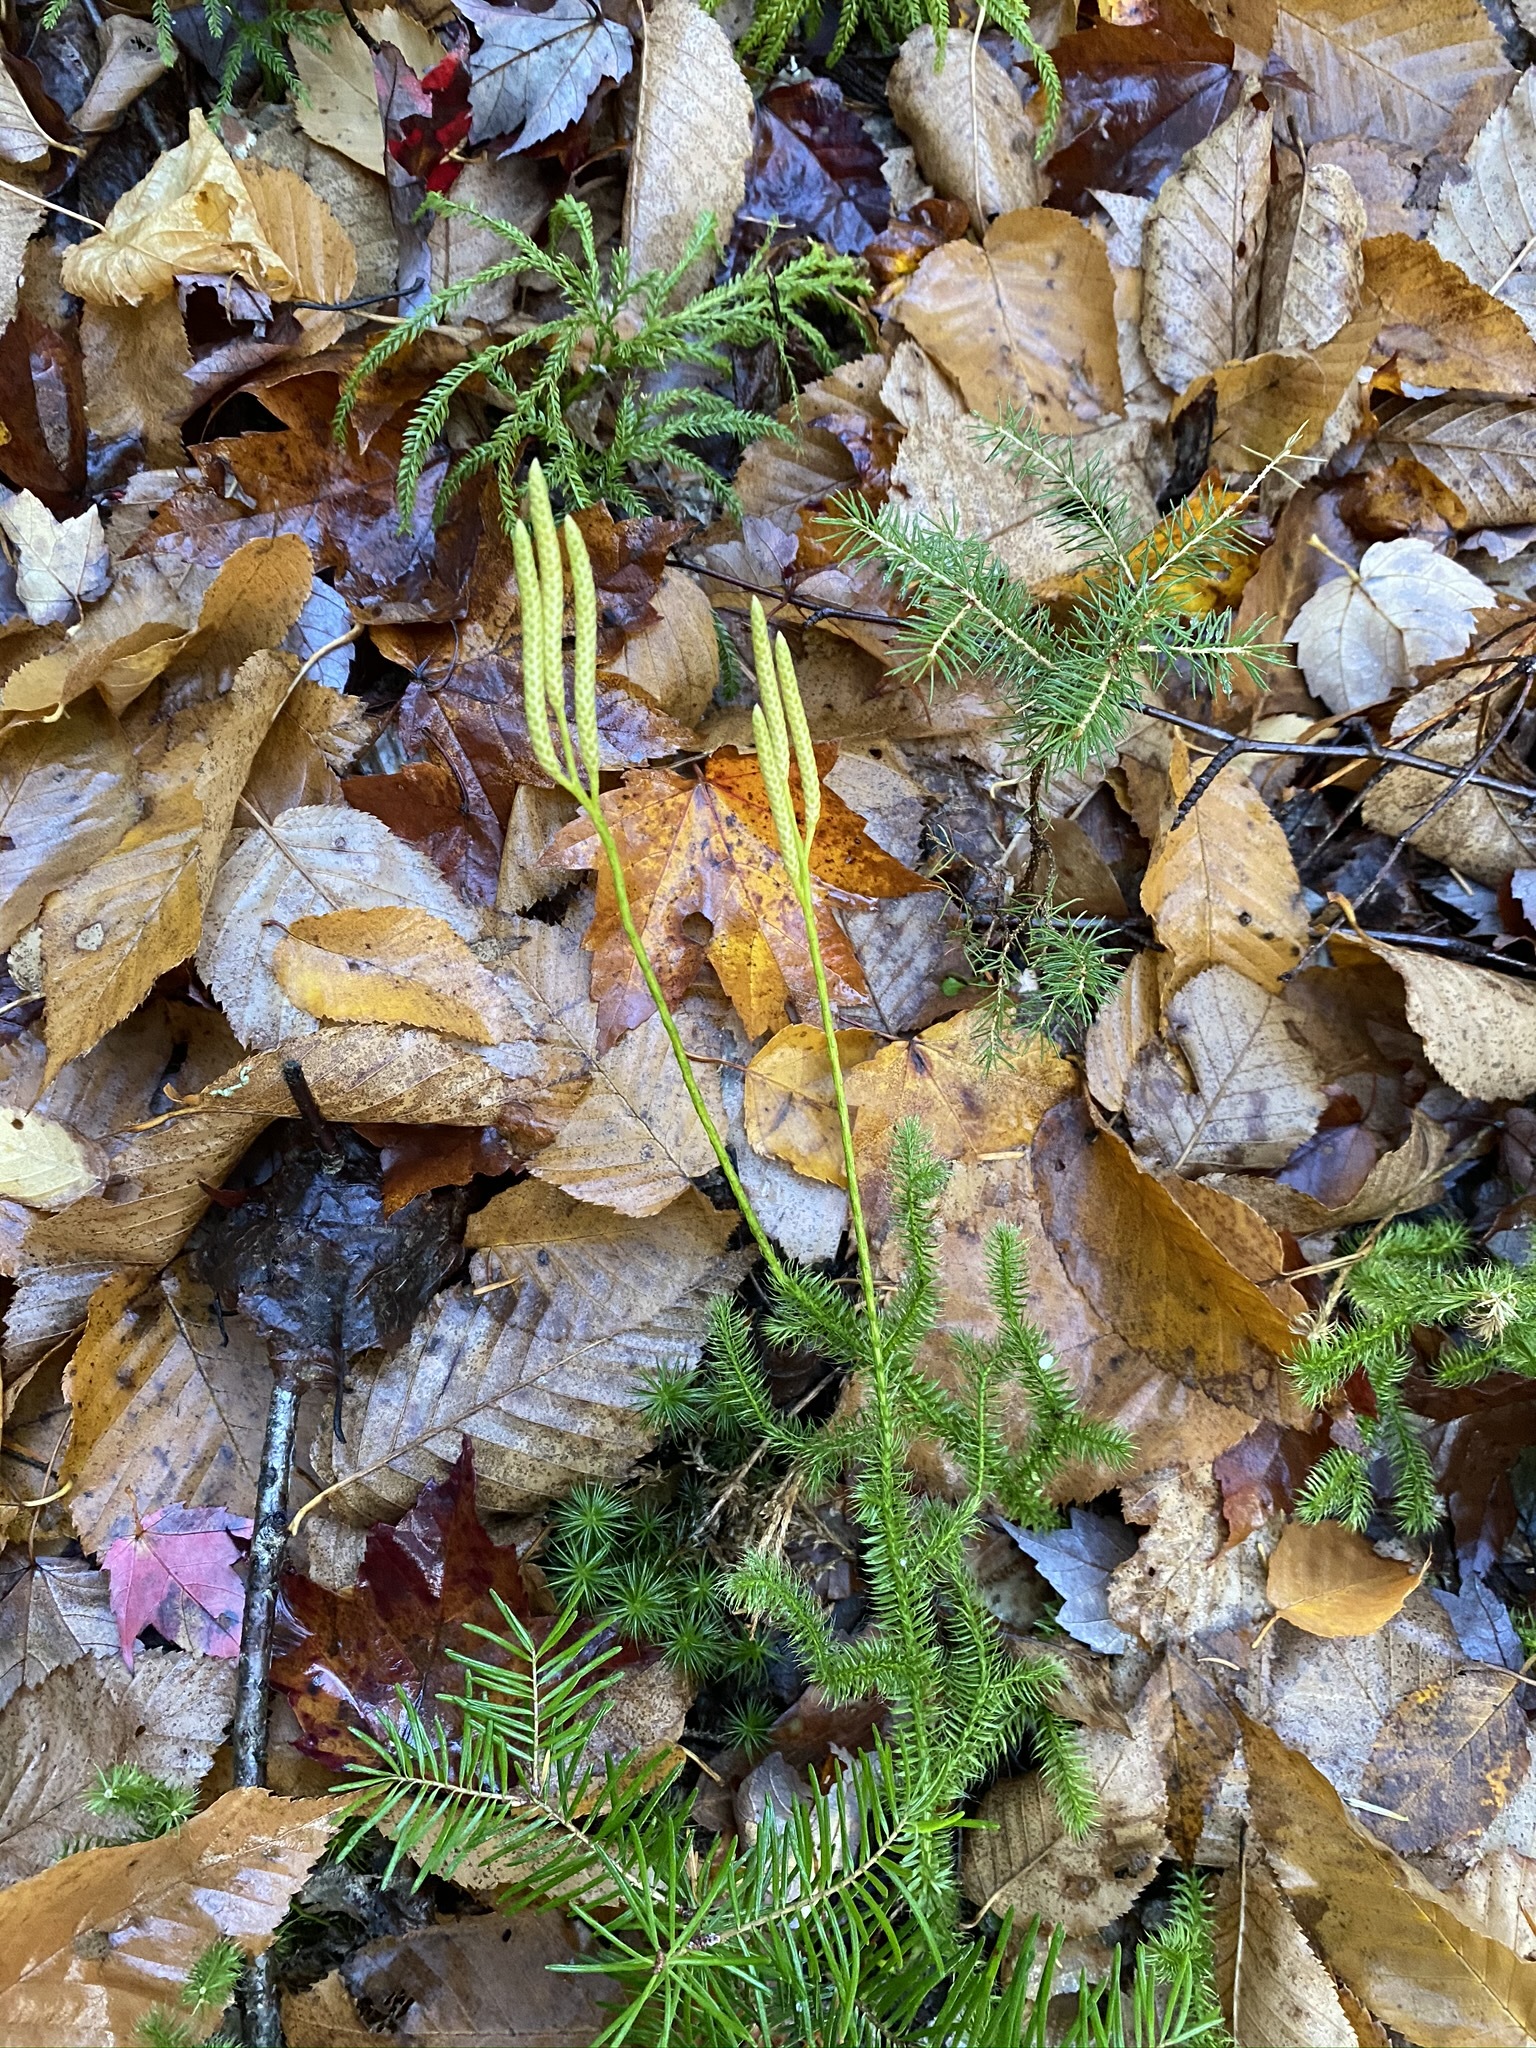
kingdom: Plantae
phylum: Tracheophyta
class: Lycopodiopsida
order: Lycopodiales
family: Lycopodiaceae
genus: Lycopodium
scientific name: Lycopodium clavatum
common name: Stag's-horn clubmoss
